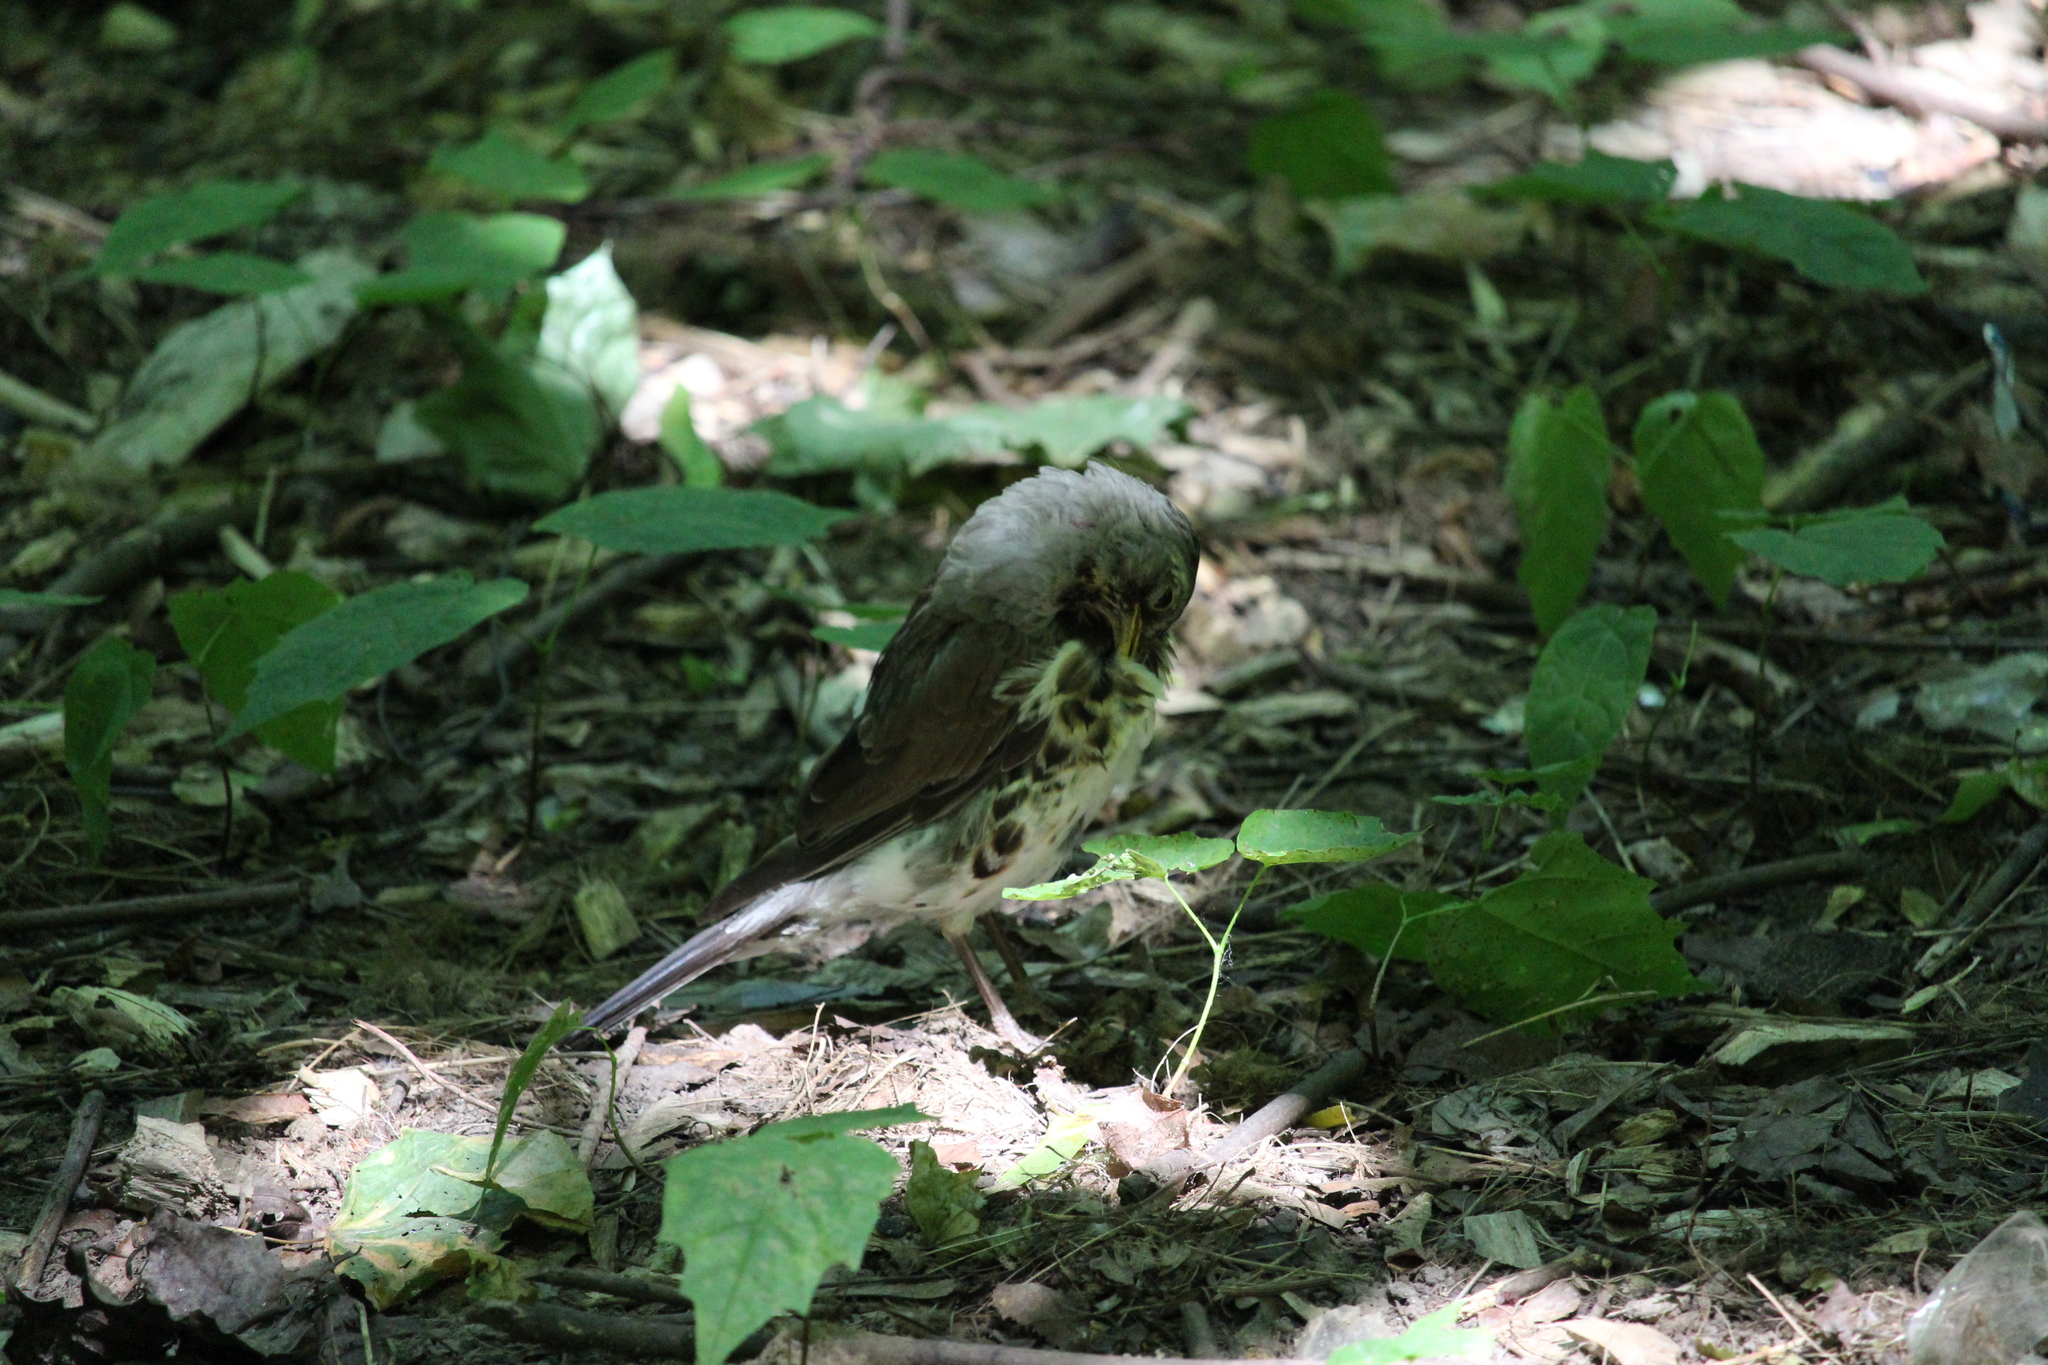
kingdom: Animalia
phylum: Chordata
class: Aves
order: Passeriformes
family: Turdidae
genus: Turdus
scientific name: Turdus pilaris
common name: Fieldfare
